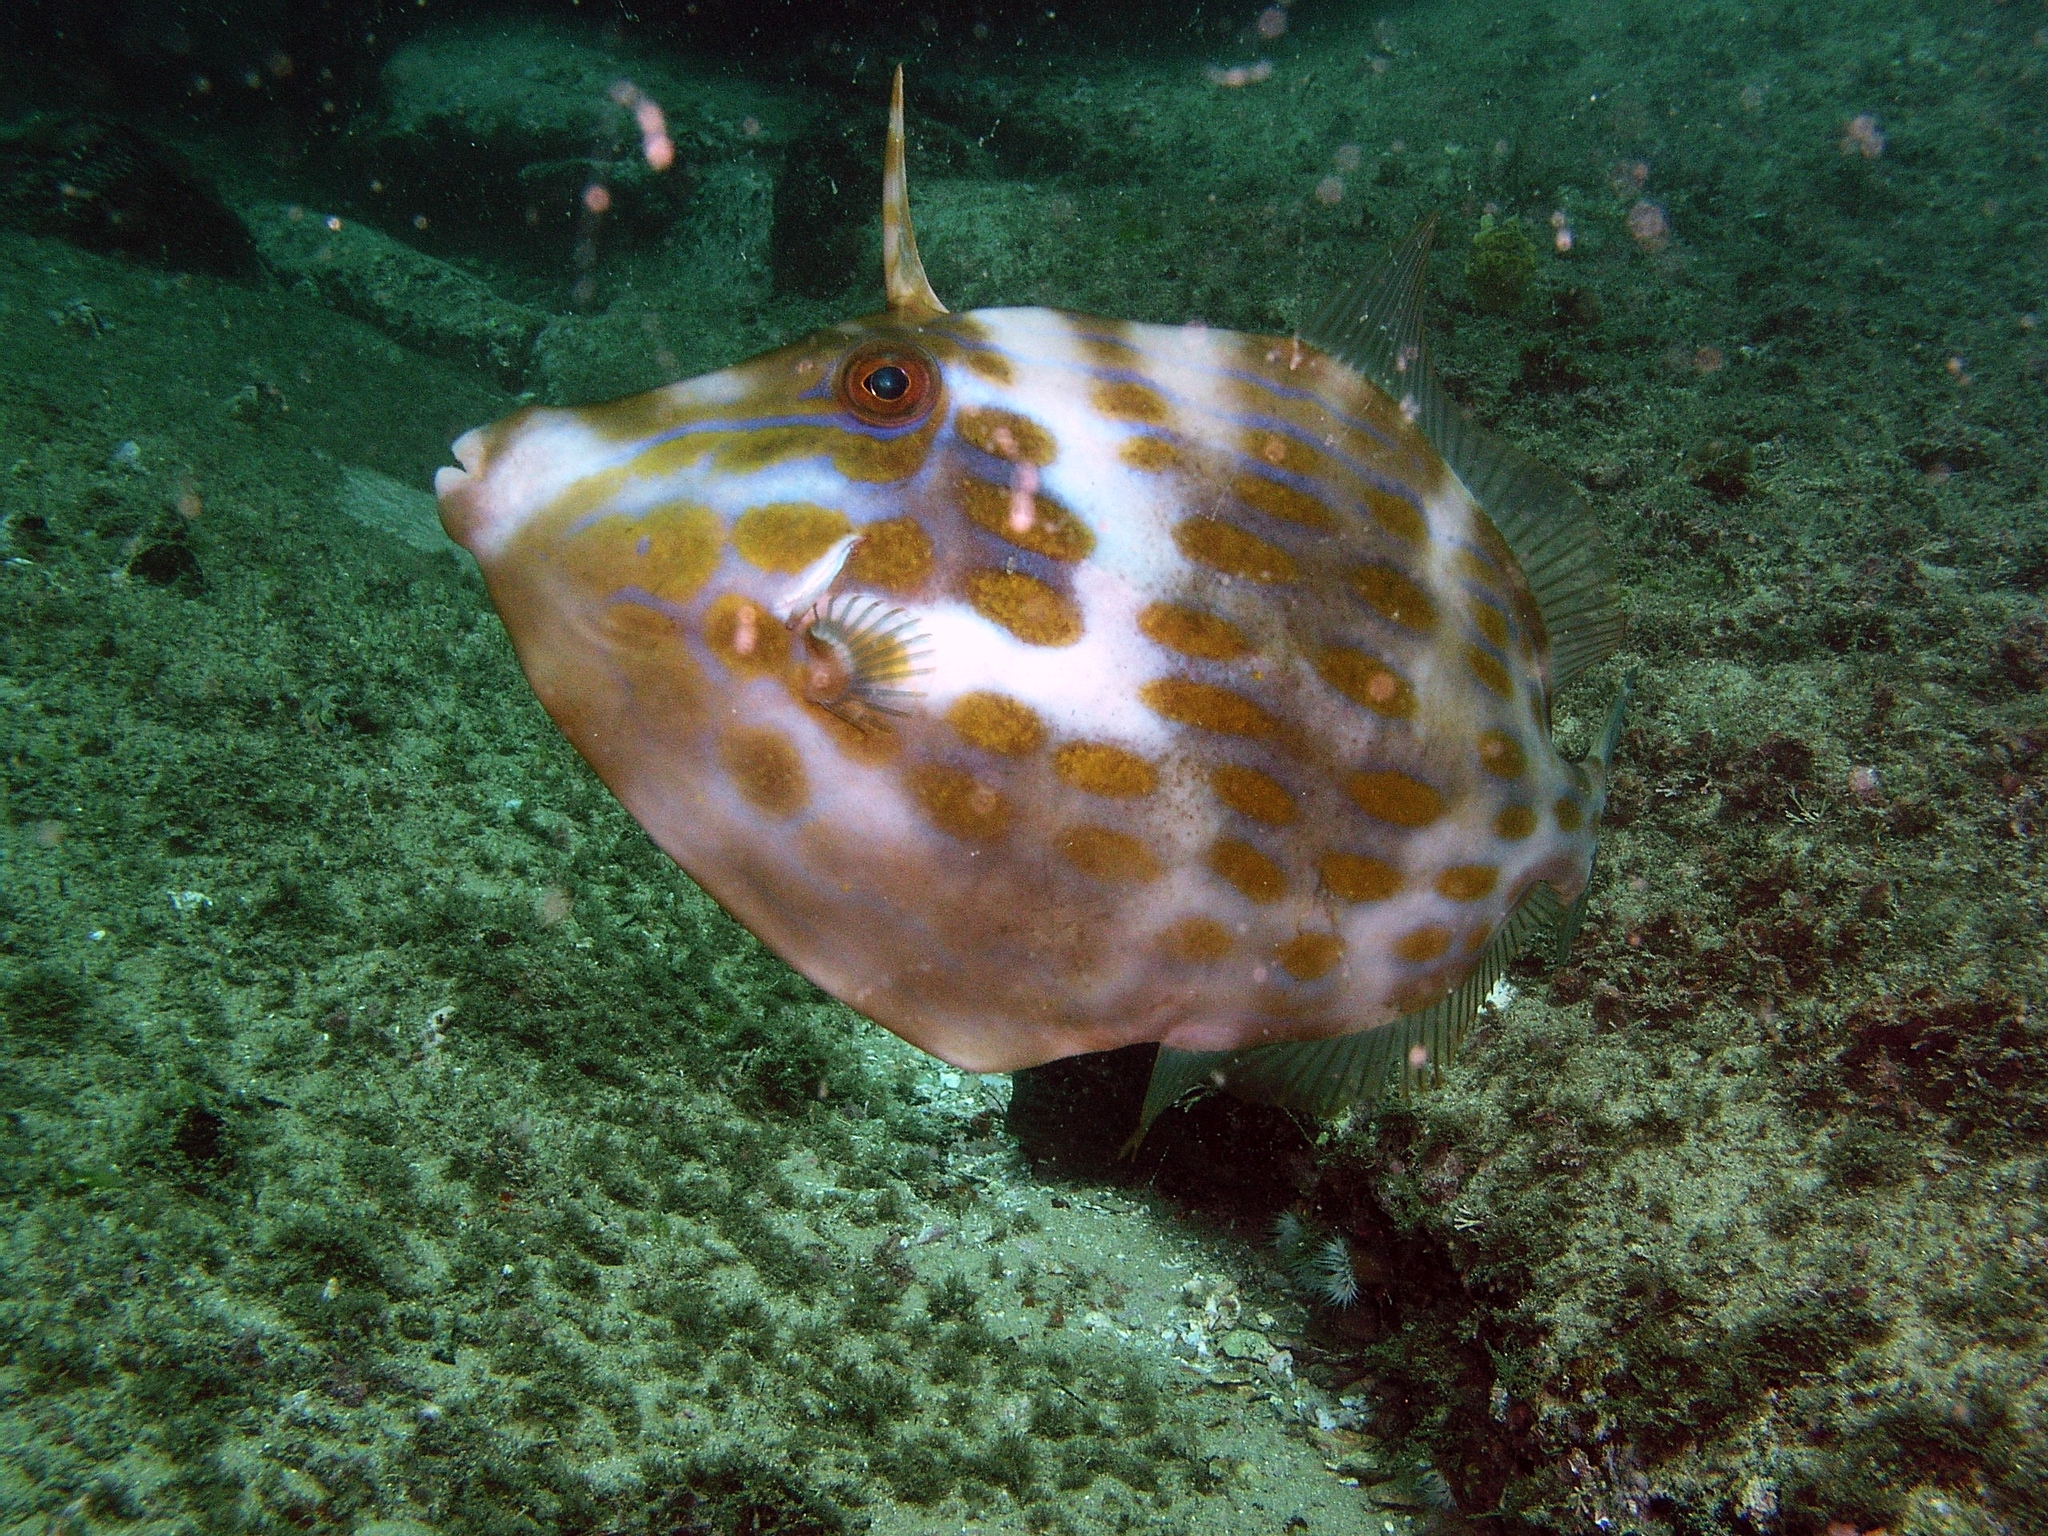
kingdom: Animalia
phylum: Chordata
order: Tetraodontiformes
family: Monacanthidae
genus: Eubalichthys
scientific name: Eubalichthys mosaicus
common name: Mosaic leatherjacket
